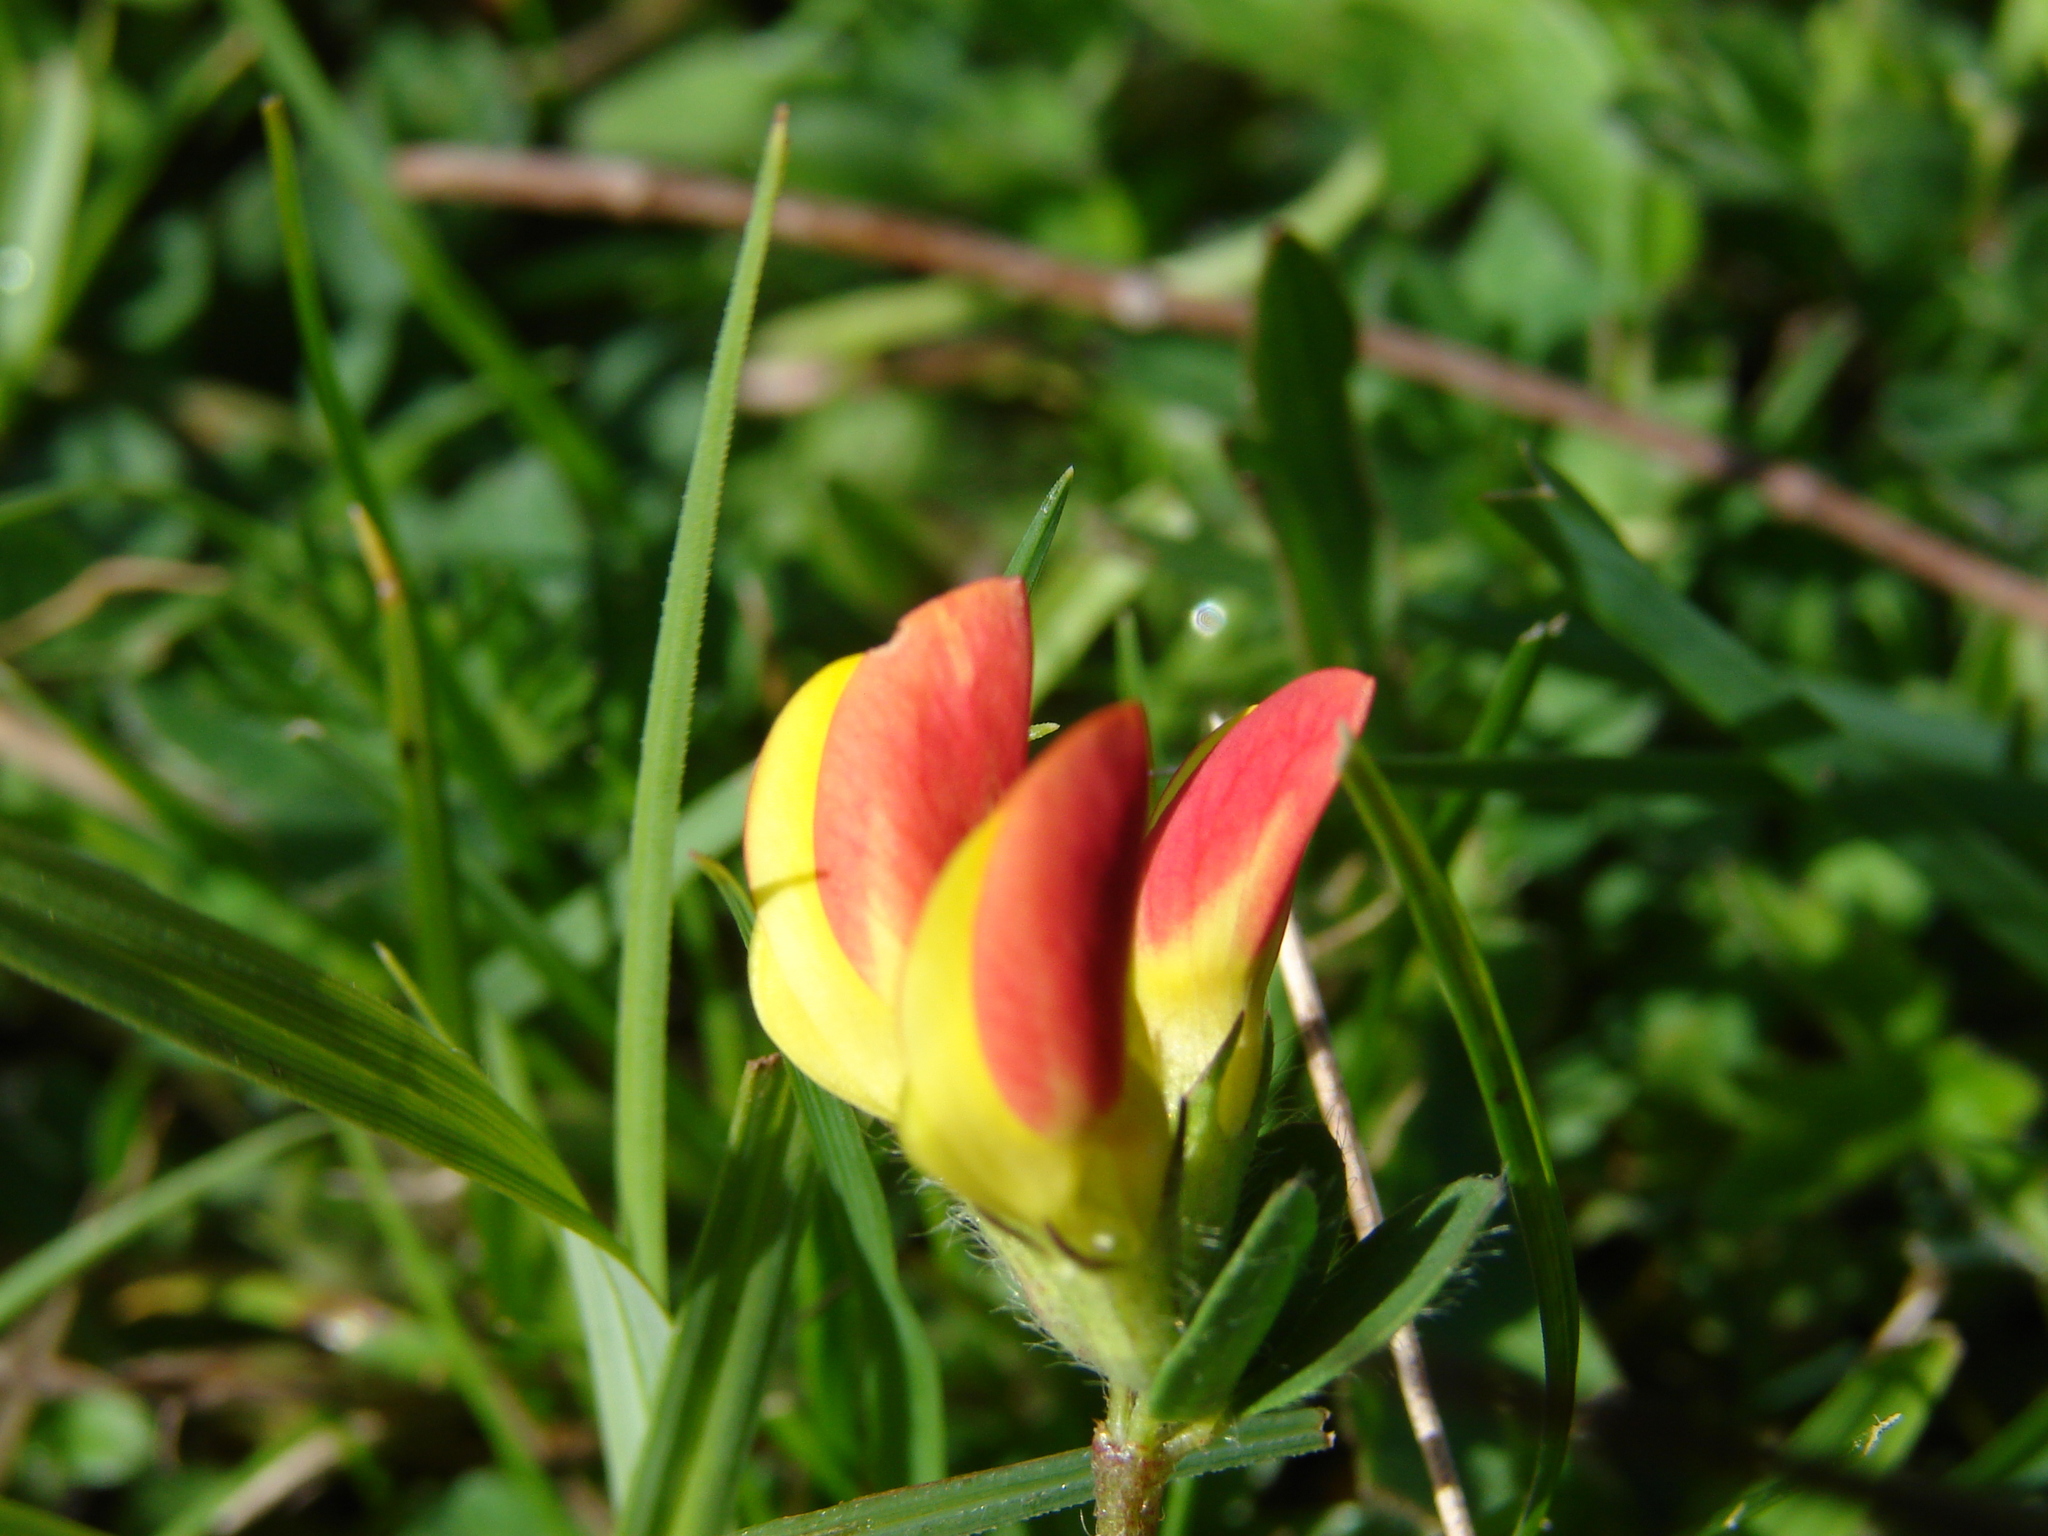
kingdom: Plantae
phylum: Tracheophyta
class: Magnoliopsida
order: Fabales
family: Fabaceae
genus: Lotus
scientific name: Lotus corniculatus
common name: Common bird's-foot-trefoil
